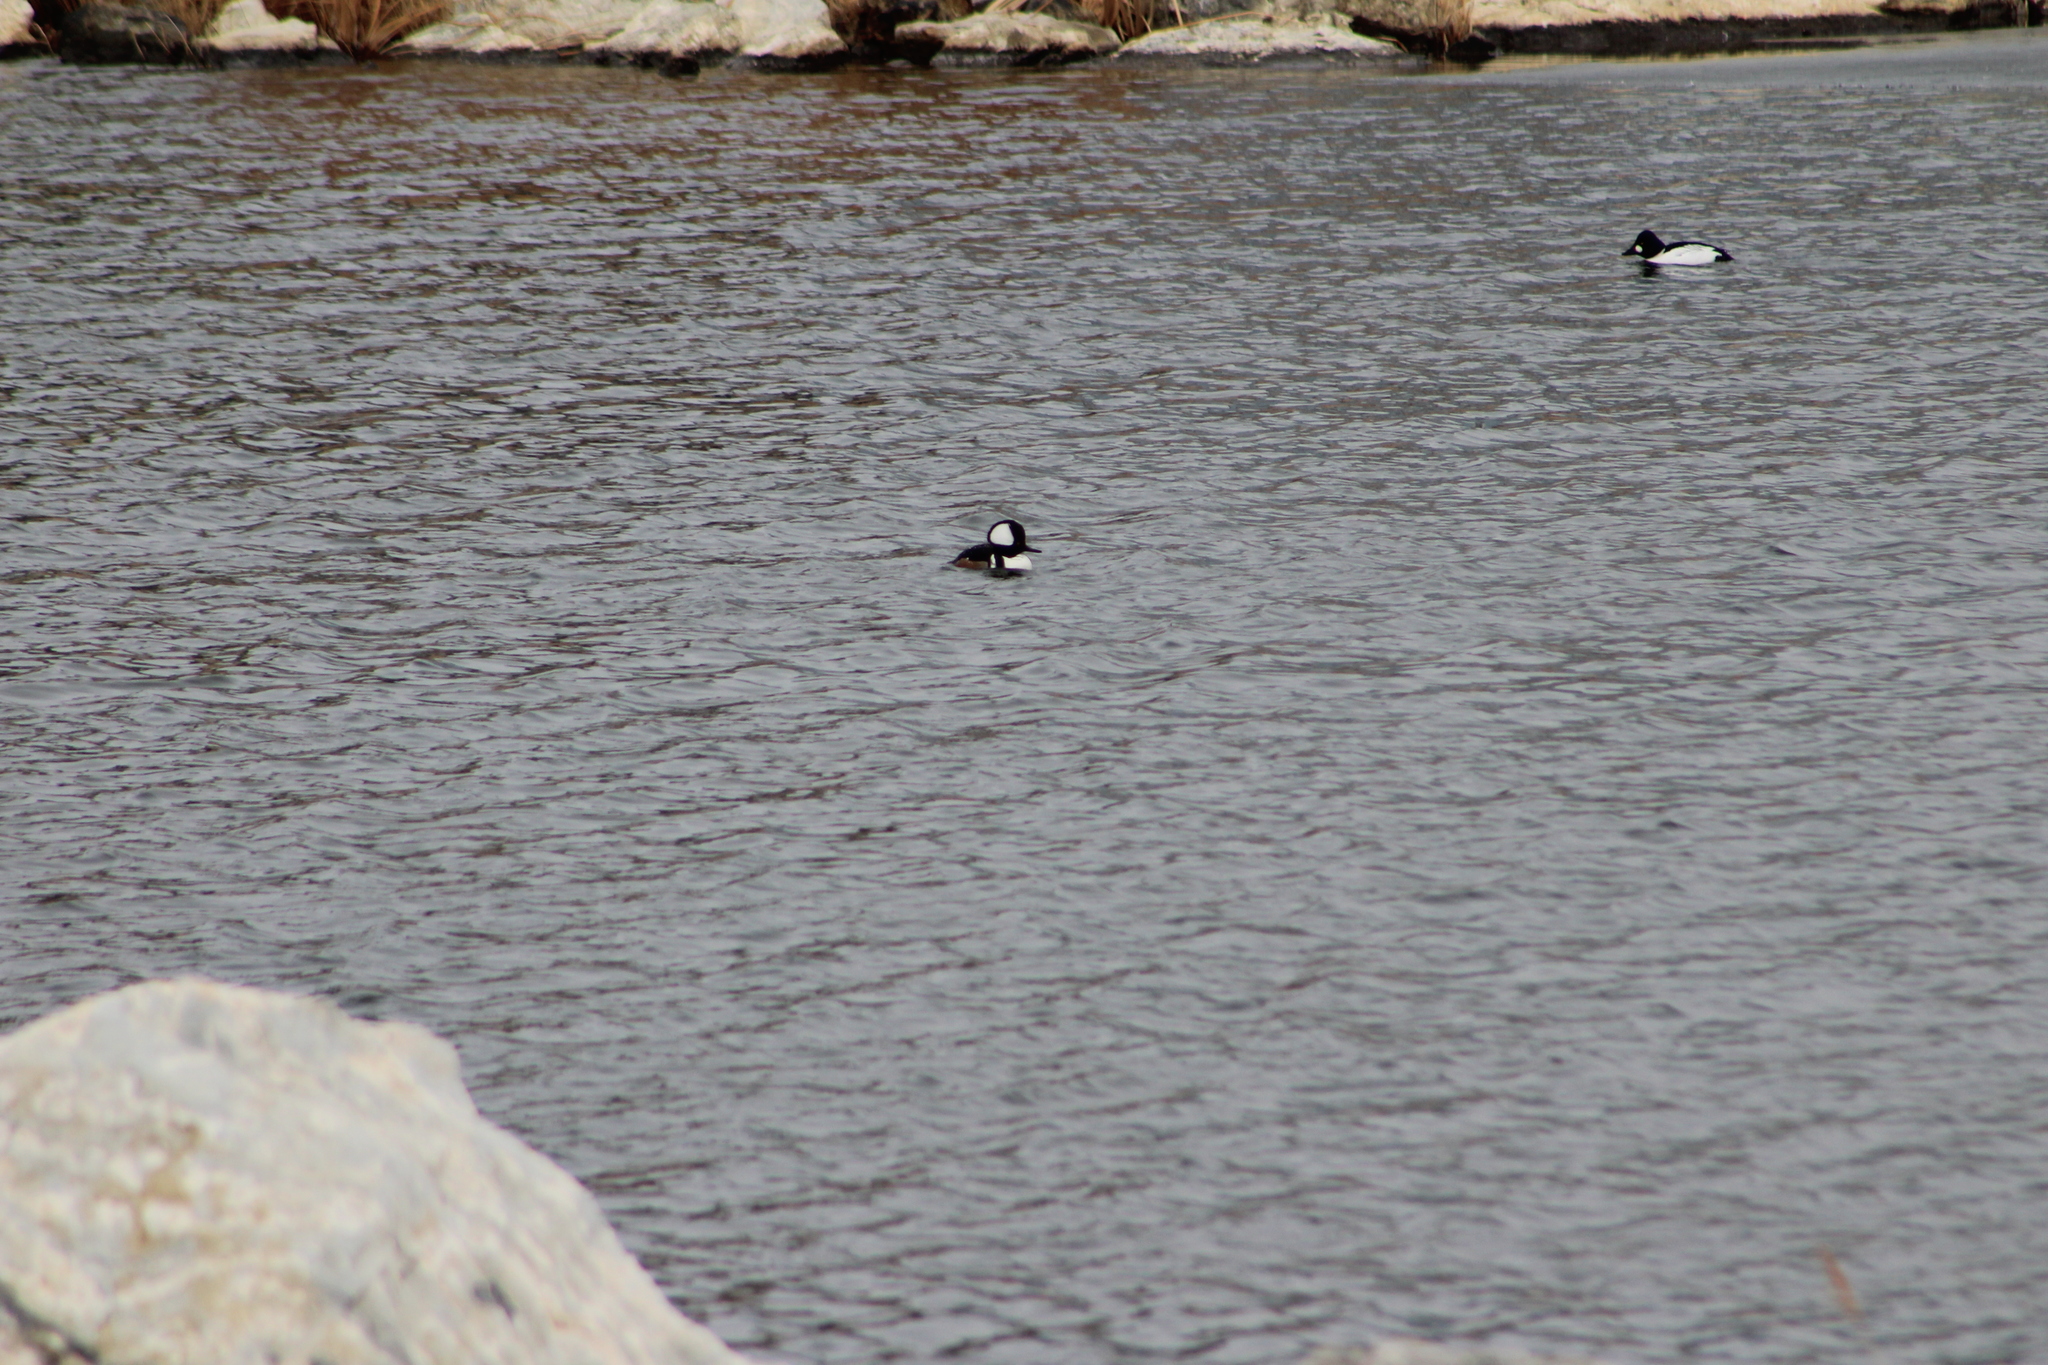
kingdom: Animalia
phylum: Chordata
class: Aves
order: Anseriformes
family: Anatidae
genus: Lophodytes
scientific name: Lophodytes cucullatus
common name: Hooded merganser
